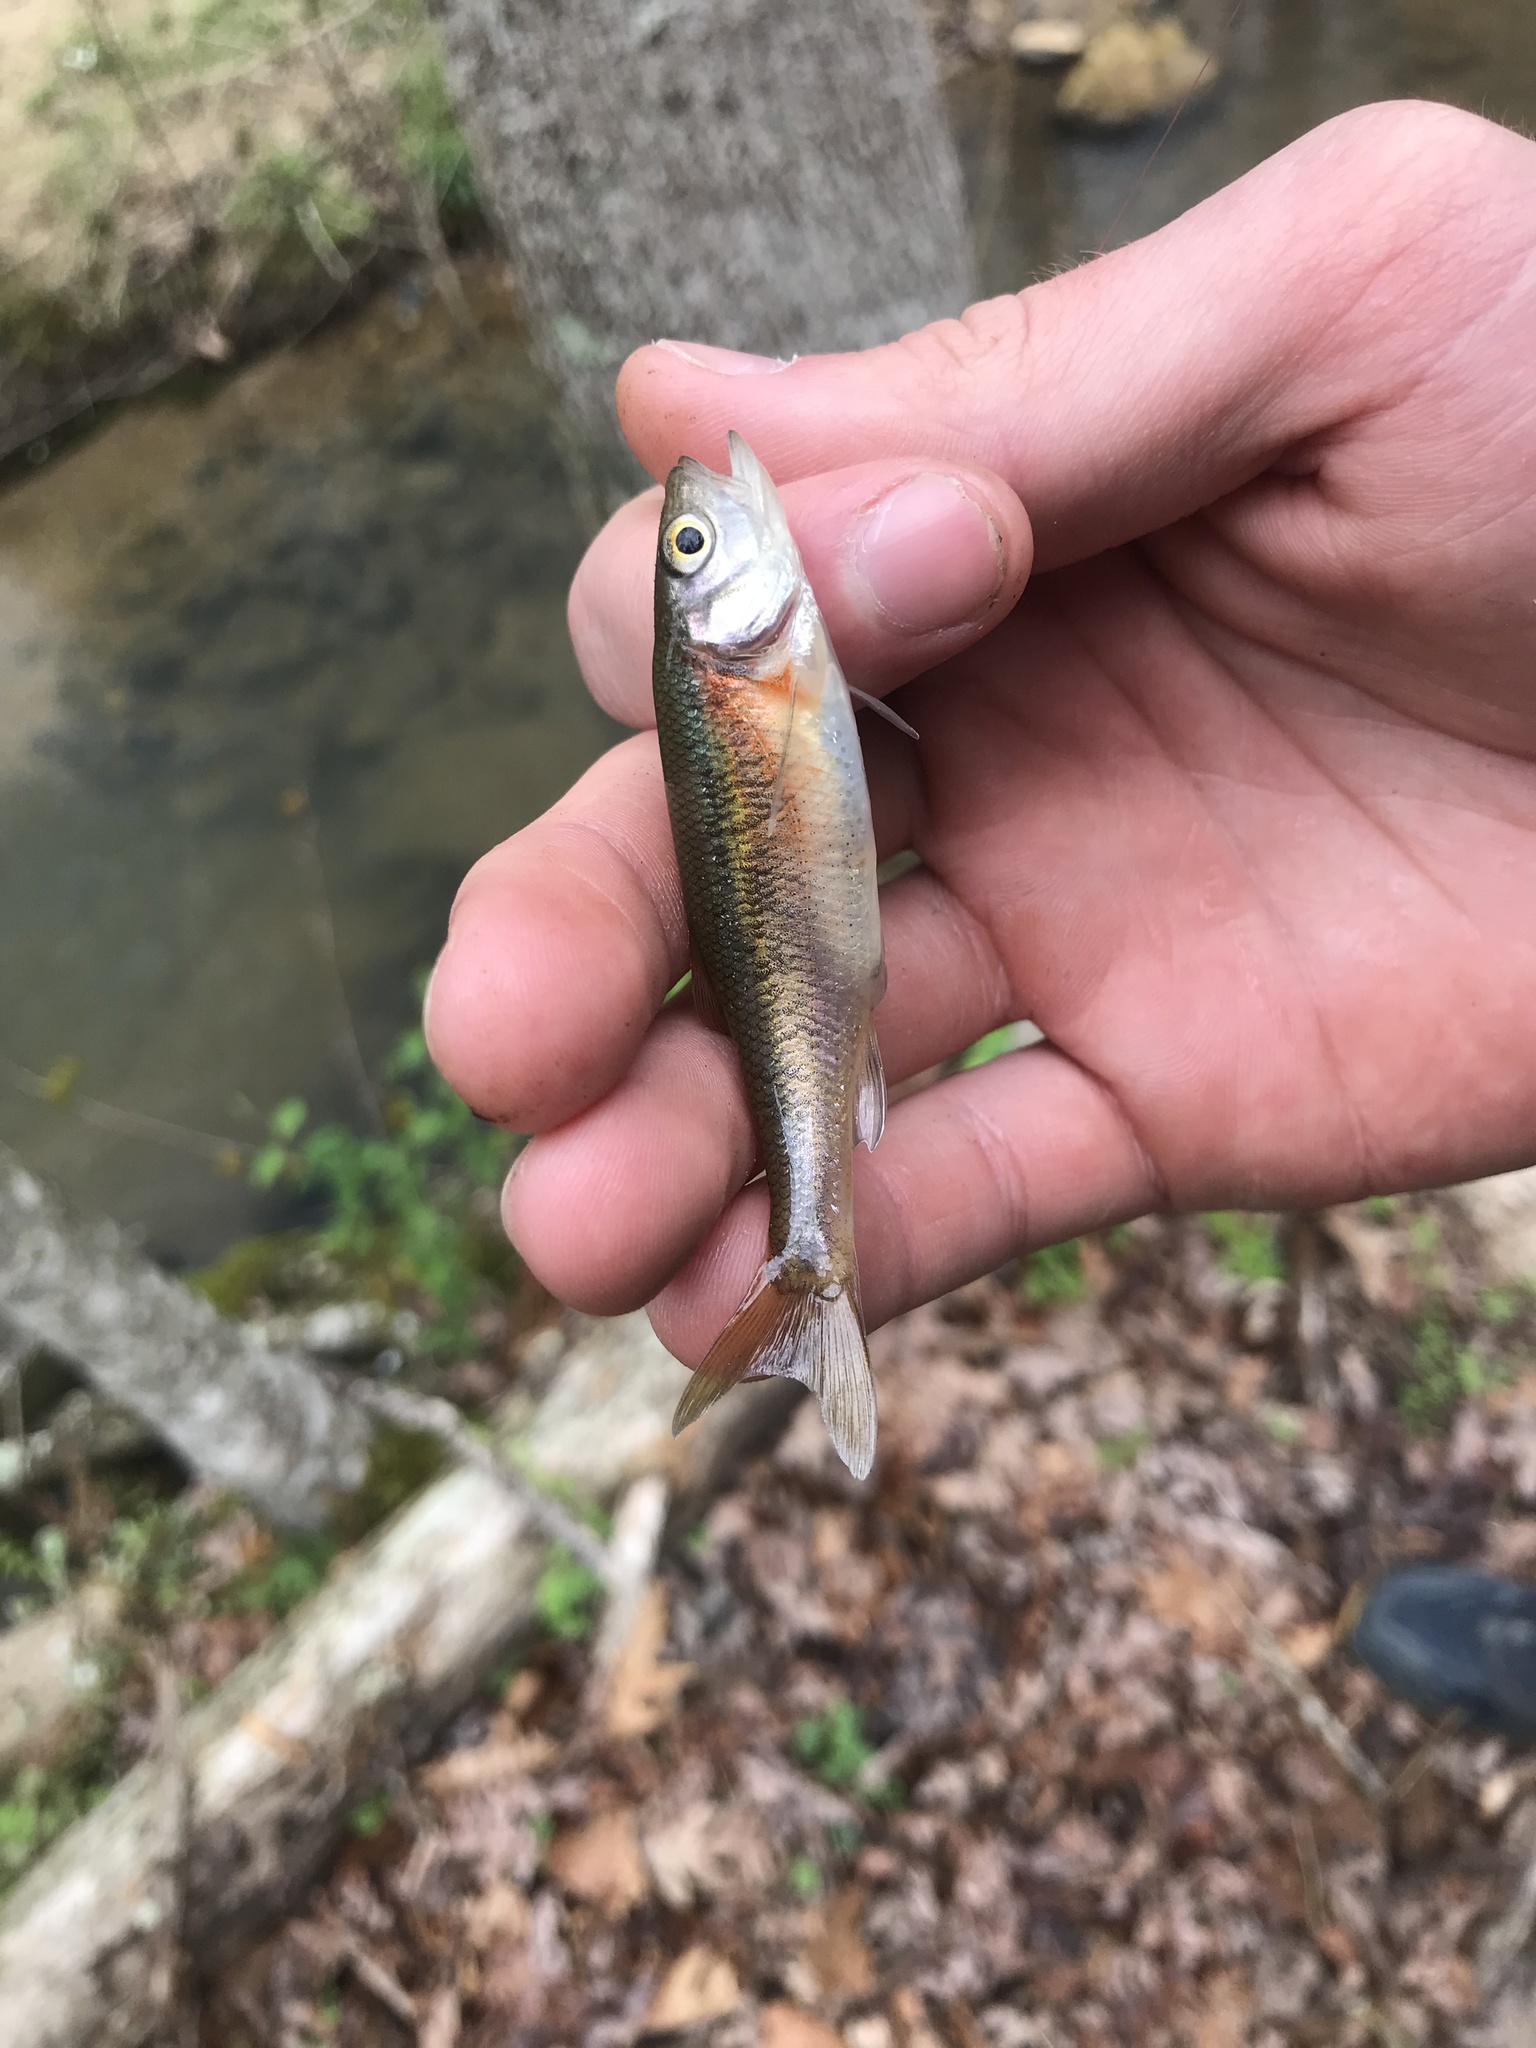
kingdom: Animalia
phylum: Chordata
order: Cypriniformes
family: Cyprinidae
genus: Clinostomus
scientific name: Clinostomus funduloides
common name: Rosyside dace
